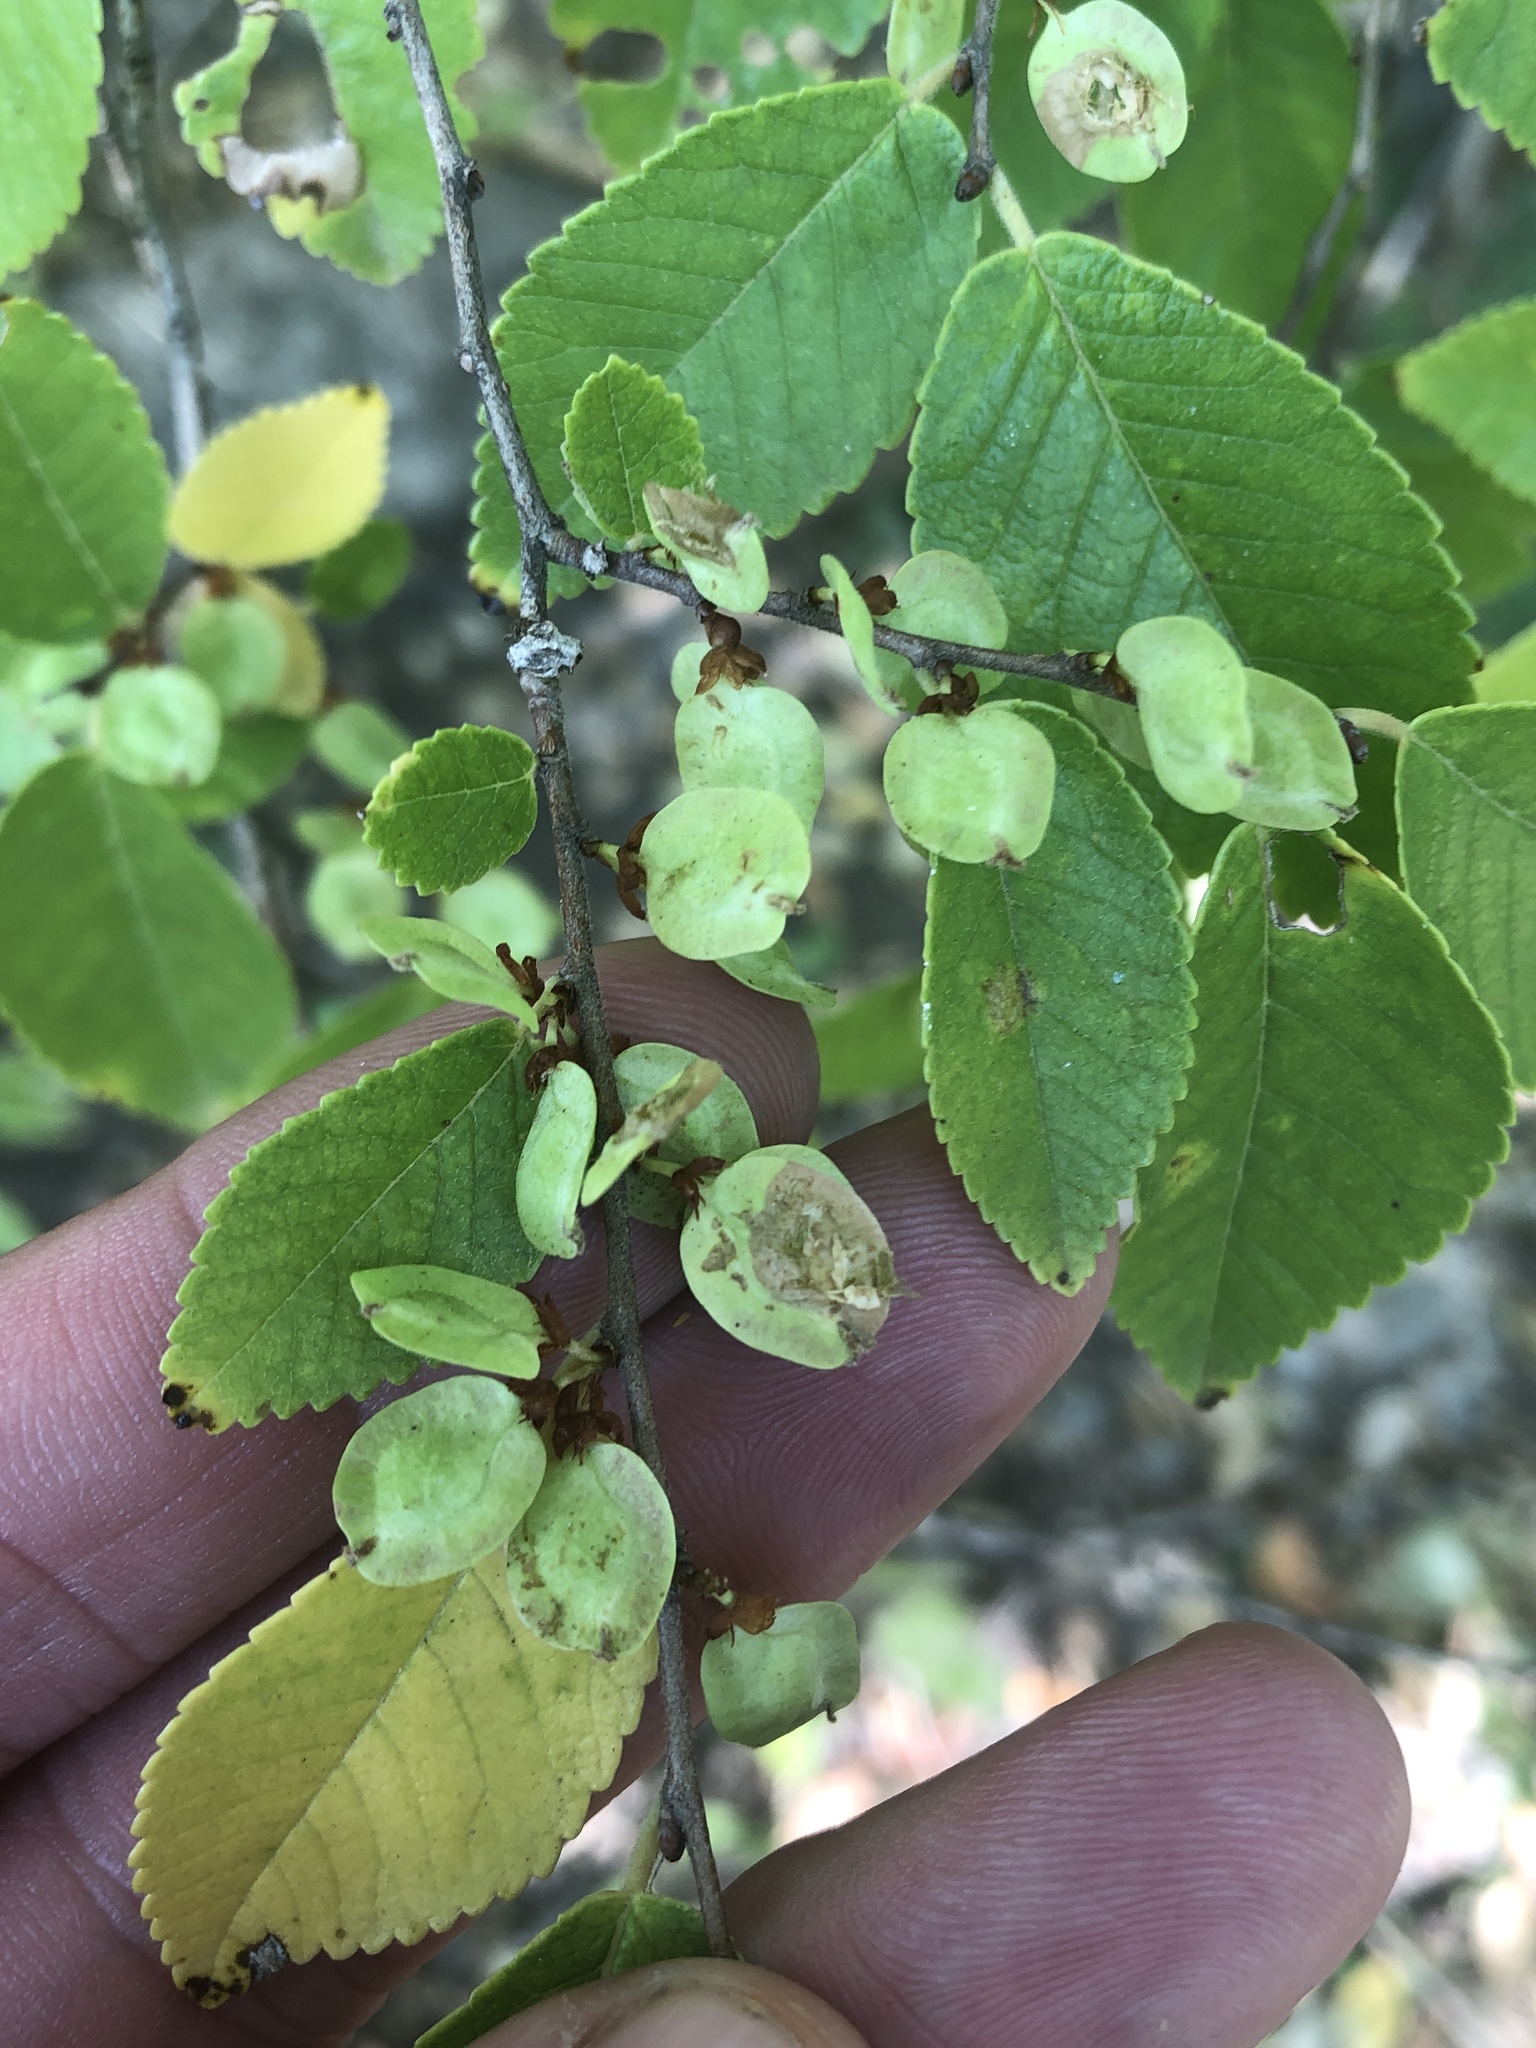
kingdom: Plantae
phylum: Tracheophyta
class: Magnoliopsida
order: Rosales
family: Ulmaceae
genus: Ulmus
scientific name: Ulmus parvifolia
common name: Chinese elm
